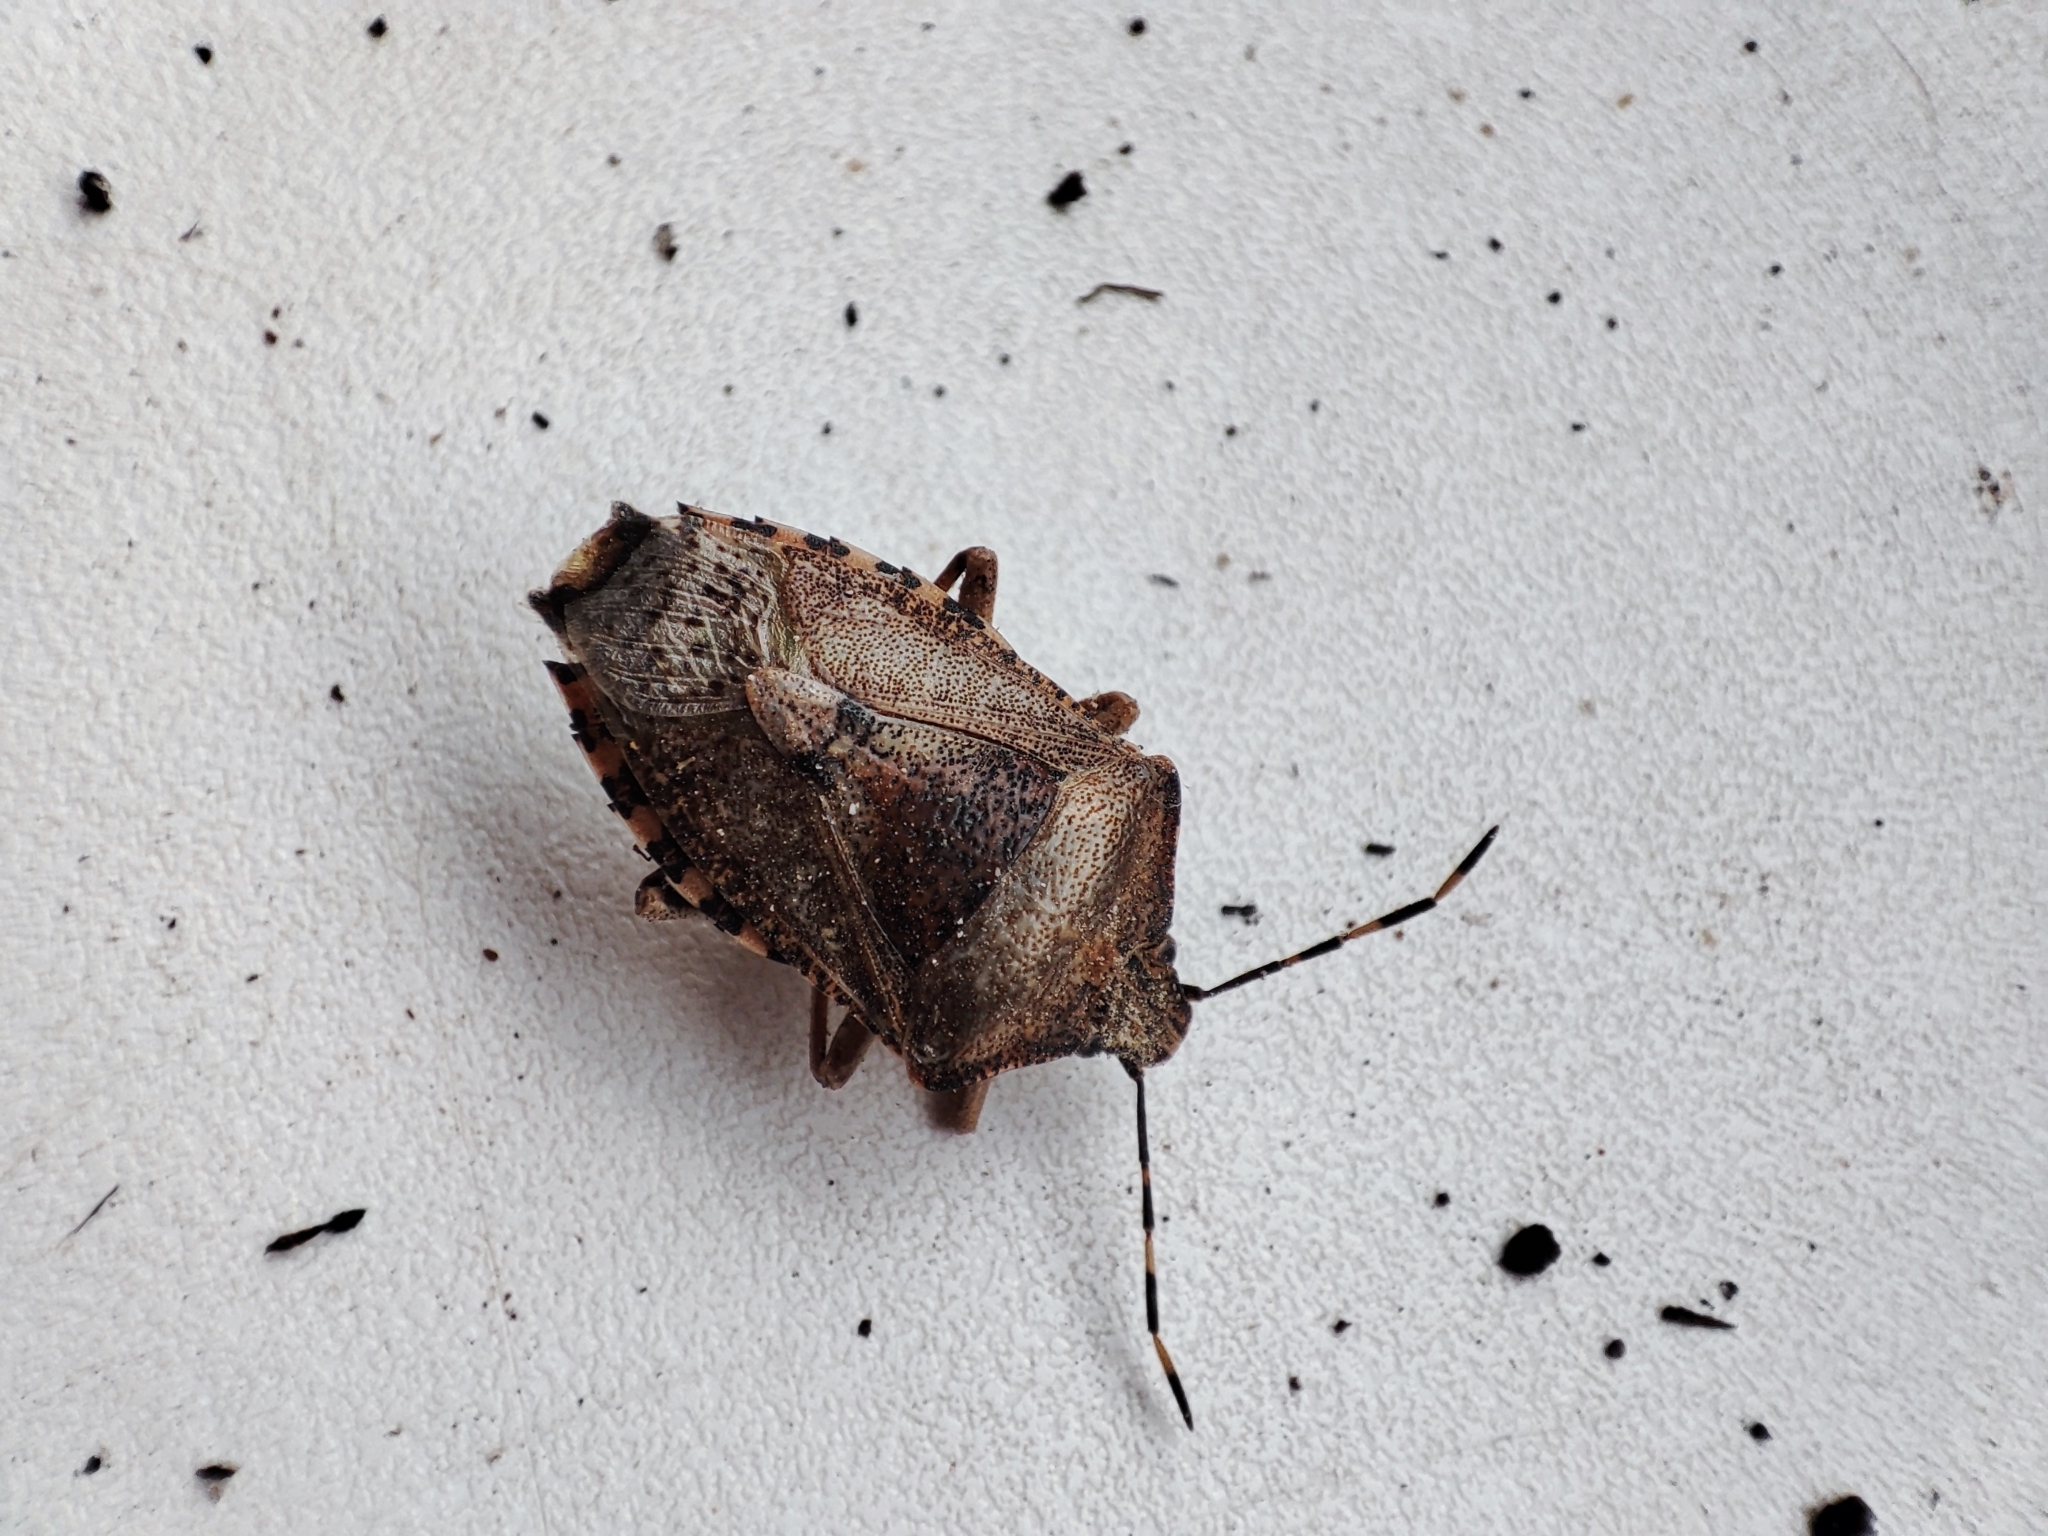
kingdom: Animalia
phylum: Arthropoda
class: Insecta
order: Hemiptera
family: Pentatomidae
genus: Rhaphigaster
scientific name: Rhaphigaster nebulosa
